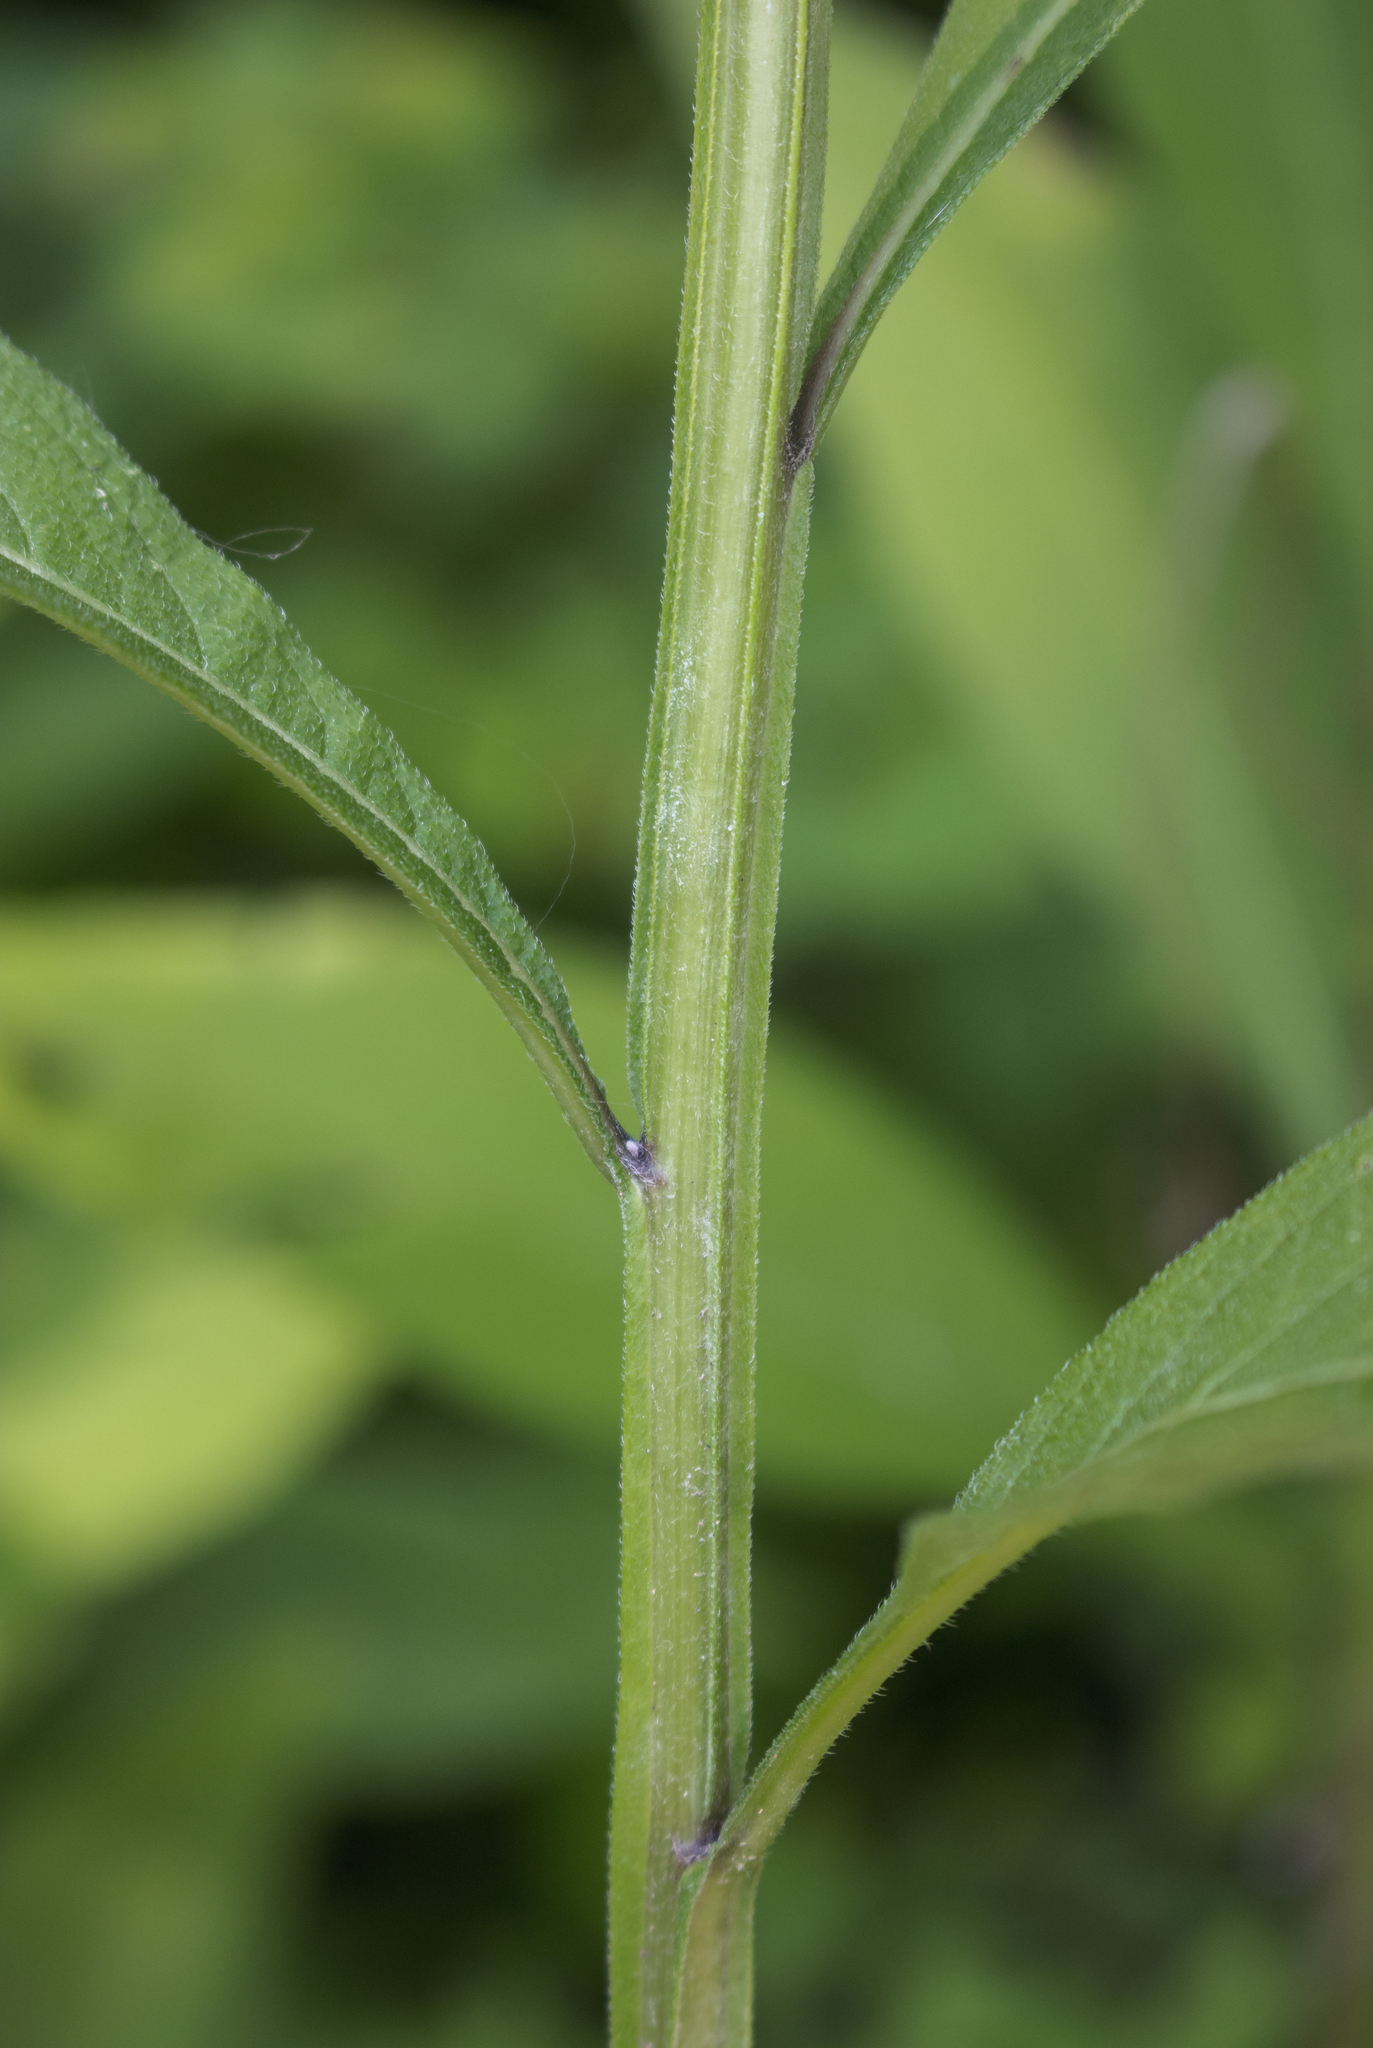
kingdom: Plantae
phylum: Tracheophyta
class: Magnoliopsida
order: Asterales
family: Asteraceae
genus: Verbesina
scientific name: Verbesina alternifolia
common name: Wingstem
